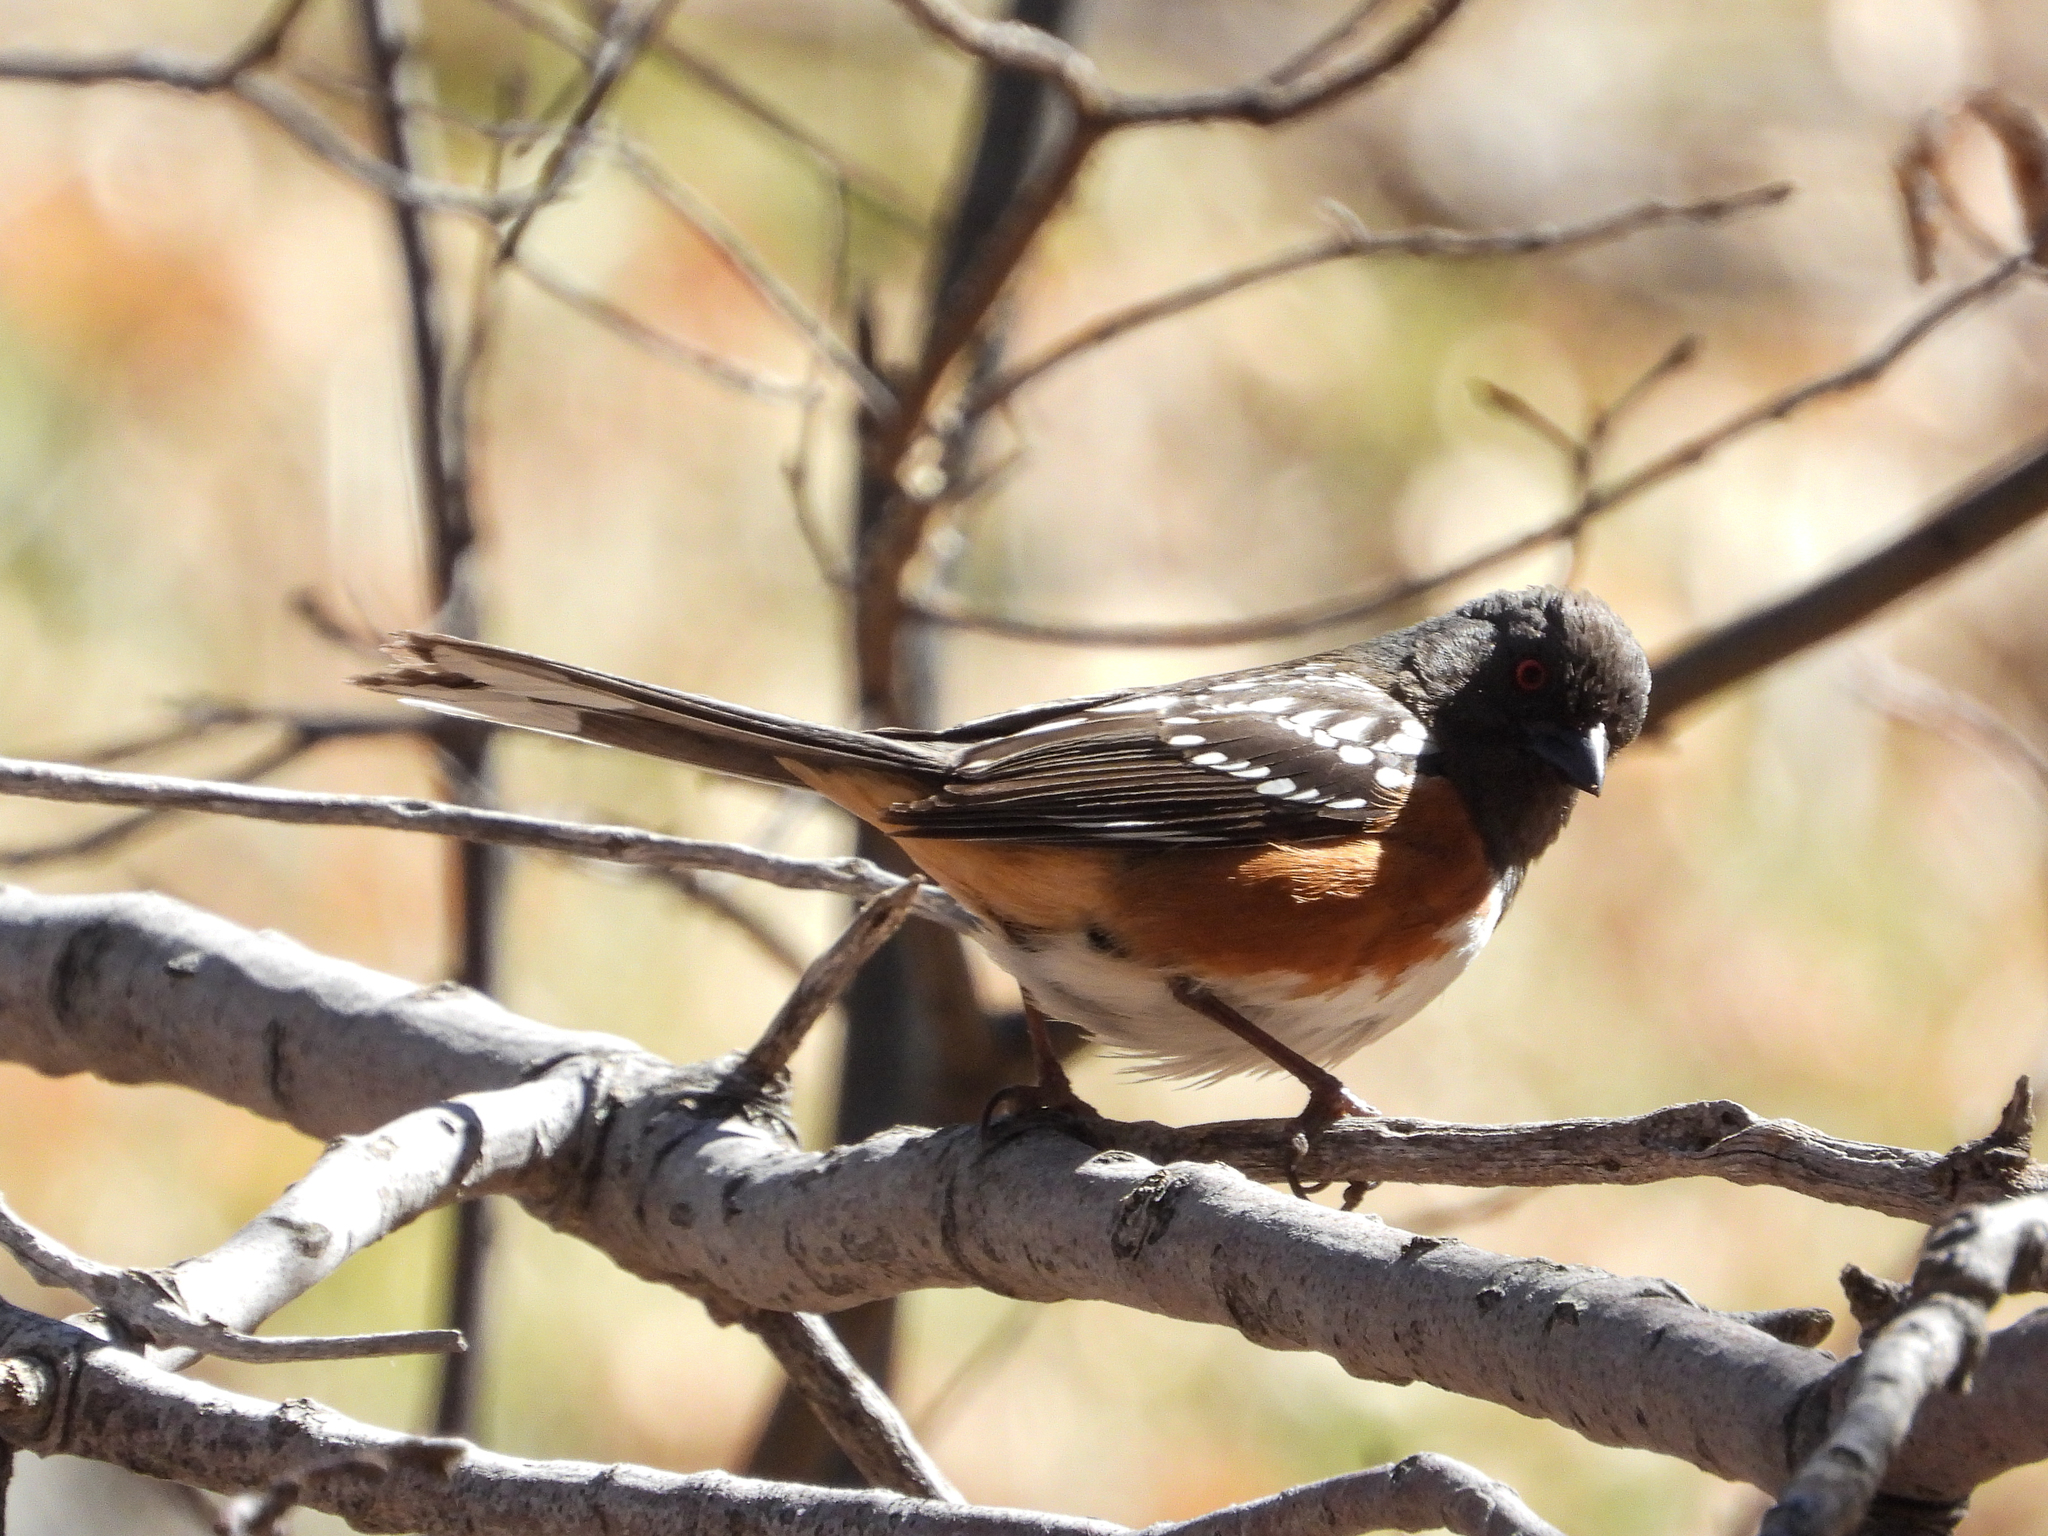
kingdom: Animalia
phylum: Chordata
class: Aves
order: Passeriformes
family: Passerellidae
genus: Pipilo
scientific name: Pipilo maculatus
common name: Spotted towhee
